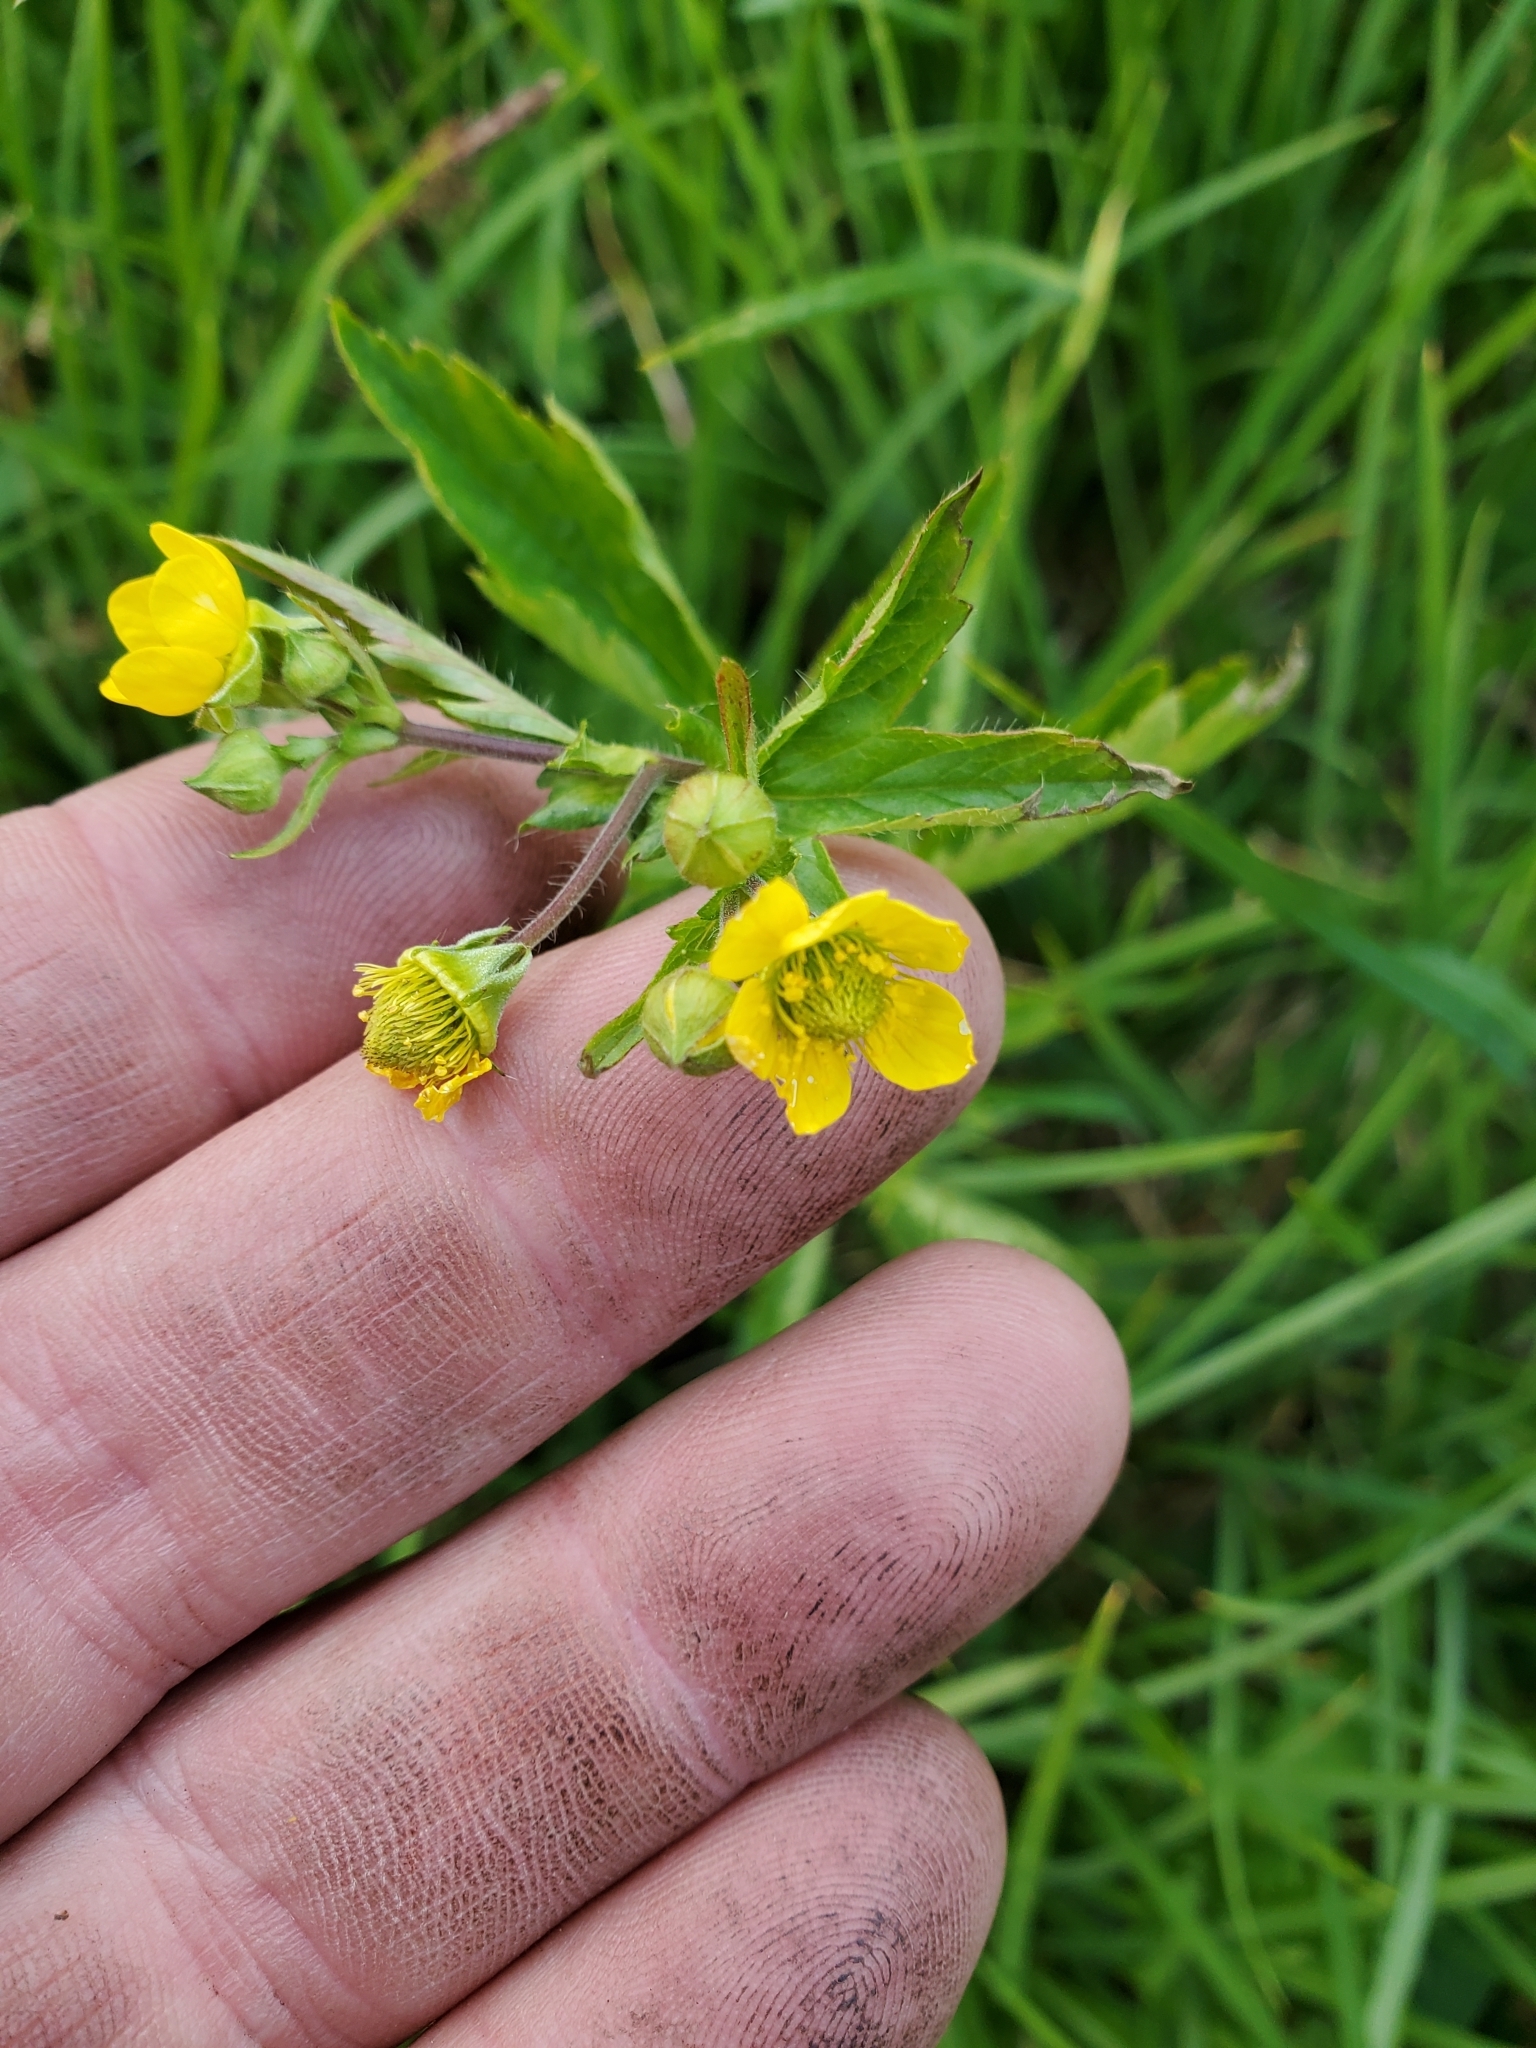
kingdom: Plantae
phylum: Tracheophyta
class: Magnoliopsida
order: Rosales
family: Rosaceae
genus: Geum
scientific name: Geum aleppicum
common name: Yellow avens
